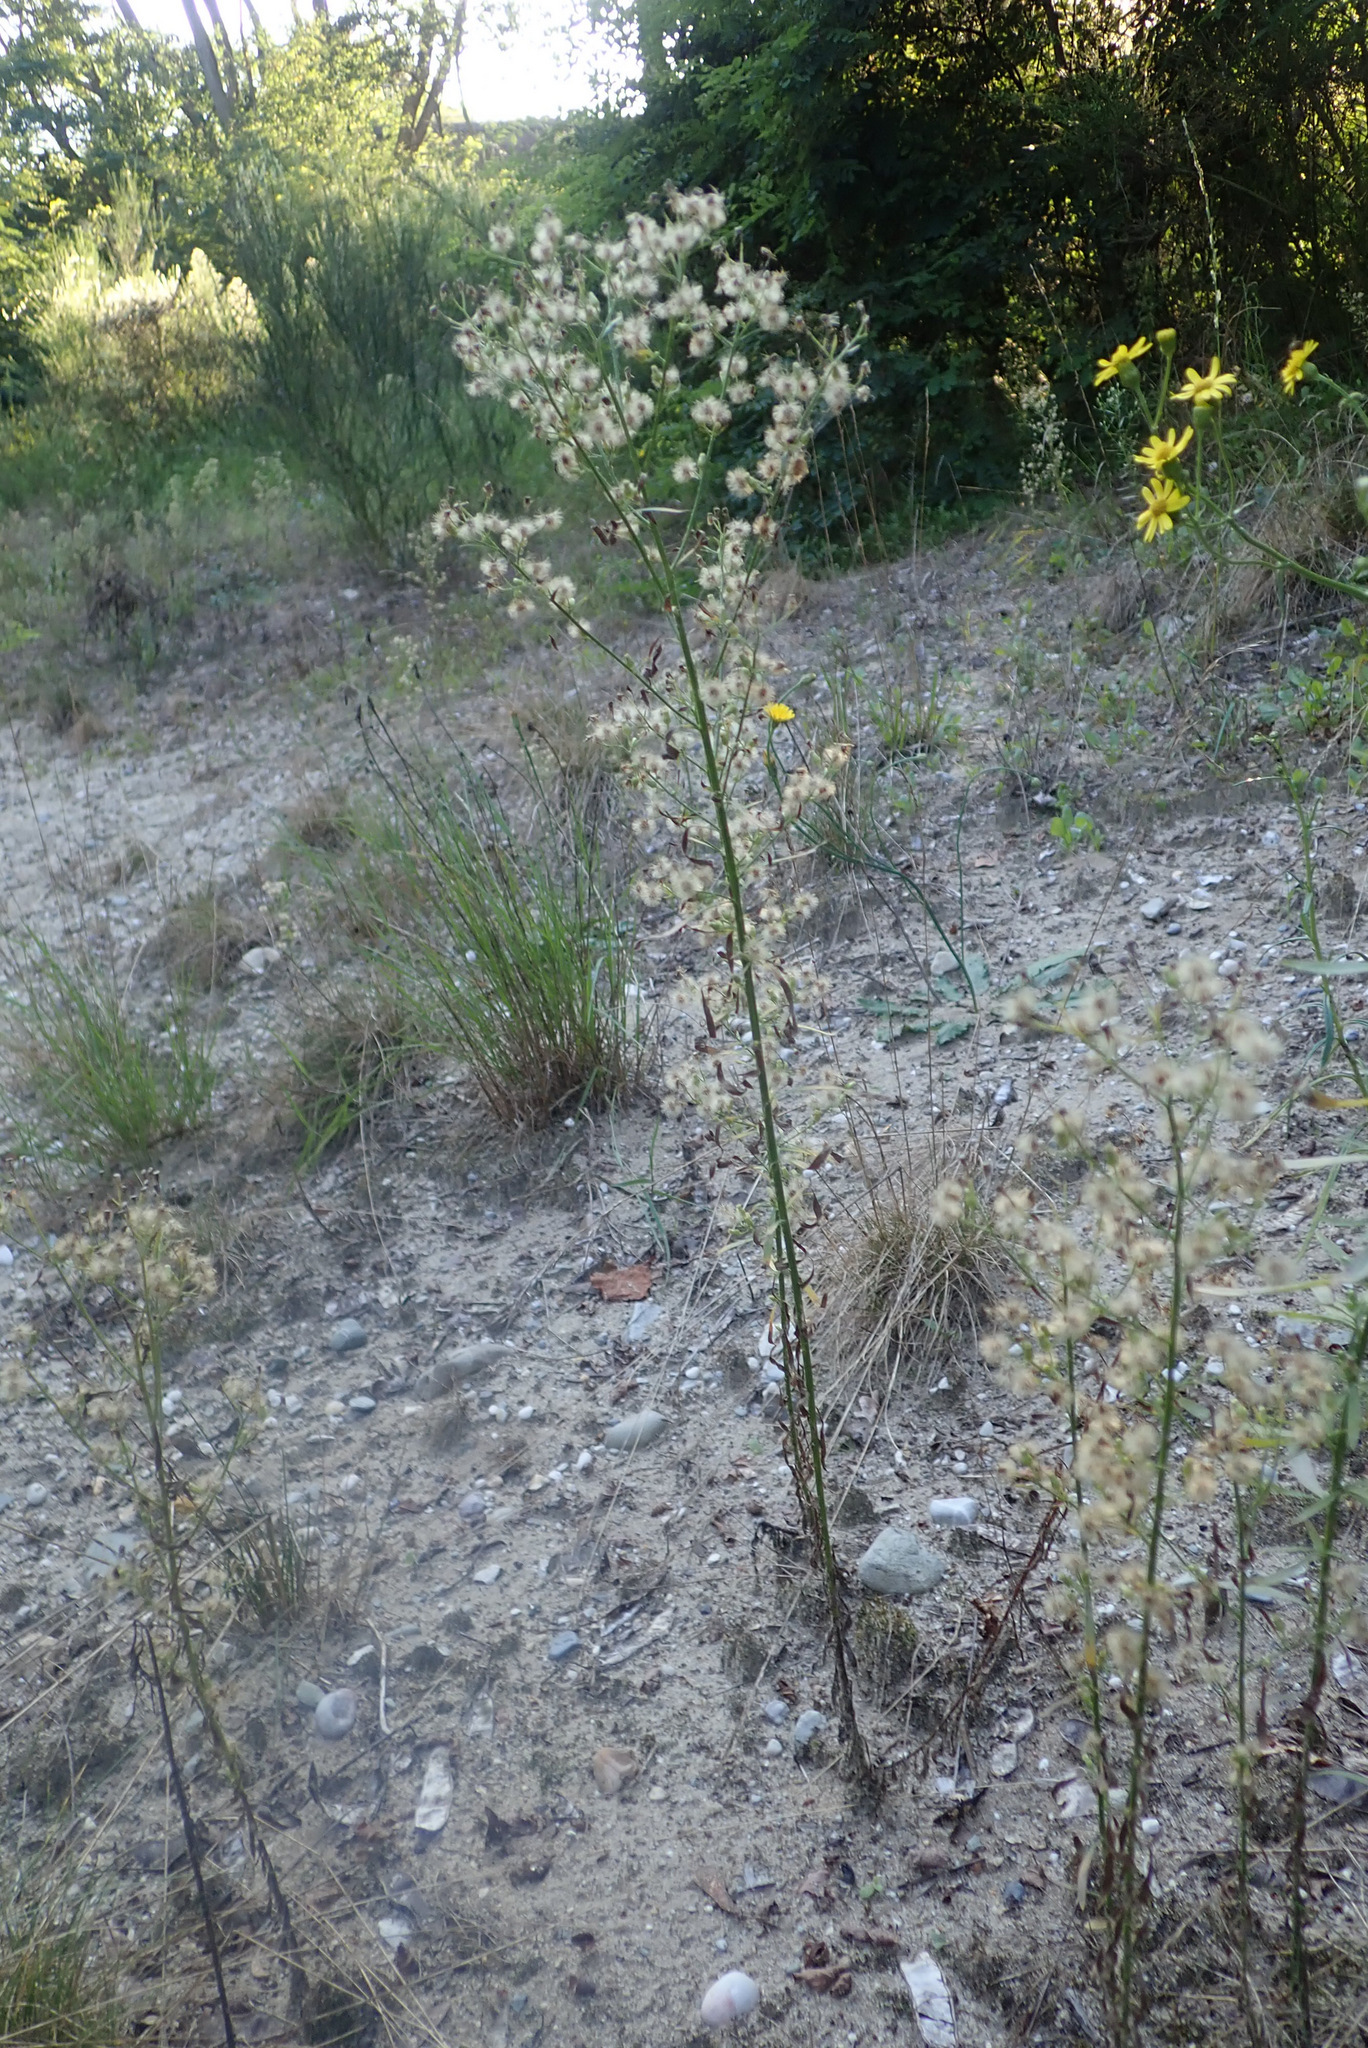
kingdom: Plantae
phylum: Tracheophyta
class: Magnoliopsida
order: Asterales
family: Asteraceae
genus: Erigeron
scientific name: Erigeron canadensis
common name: Canadian fleabane
